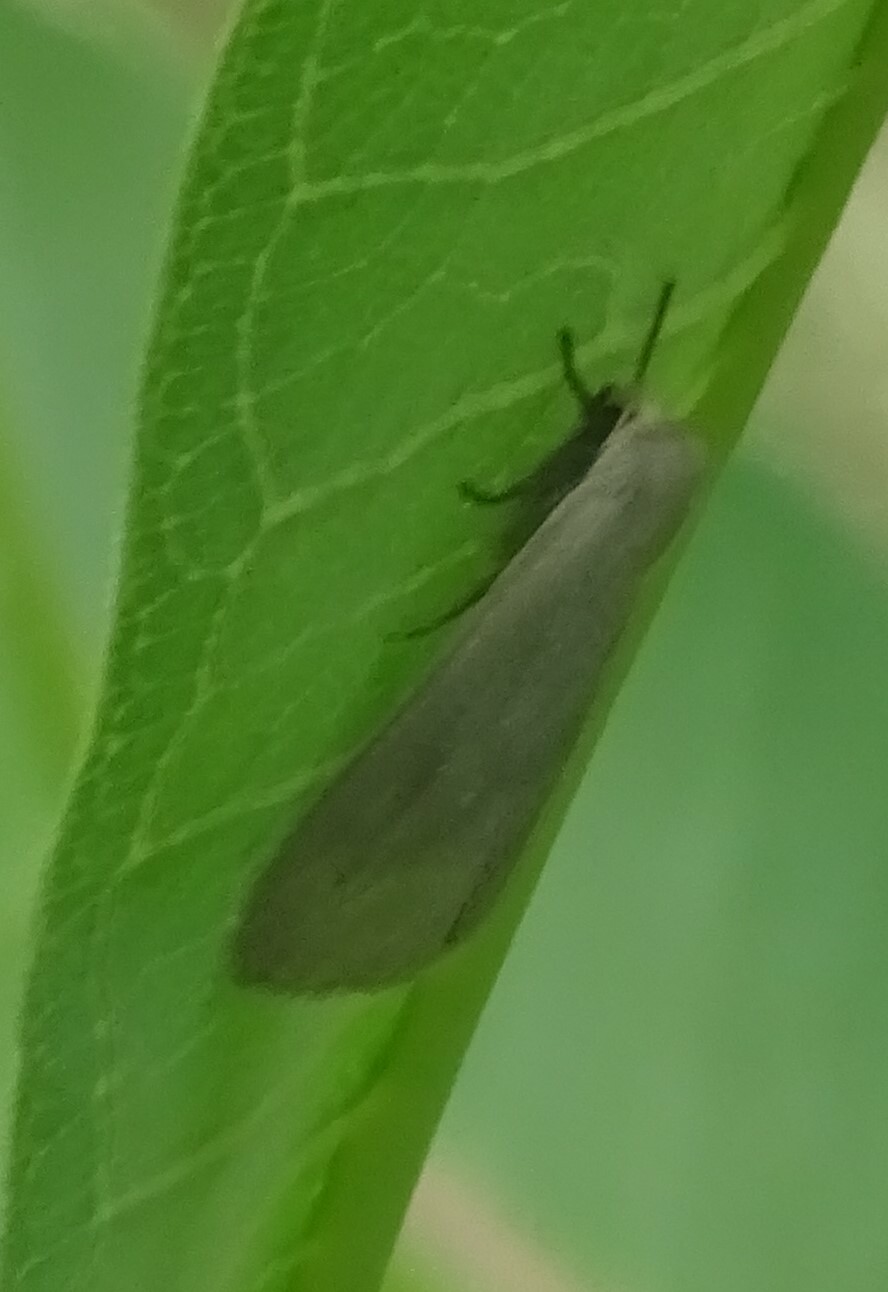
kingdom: Animalia
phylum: Arthropoda
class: Insecta
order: Lepidoptera
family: Erebidae
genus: Euchaetes
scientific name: Euchaetes egle
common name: Milkweed tussock moth
